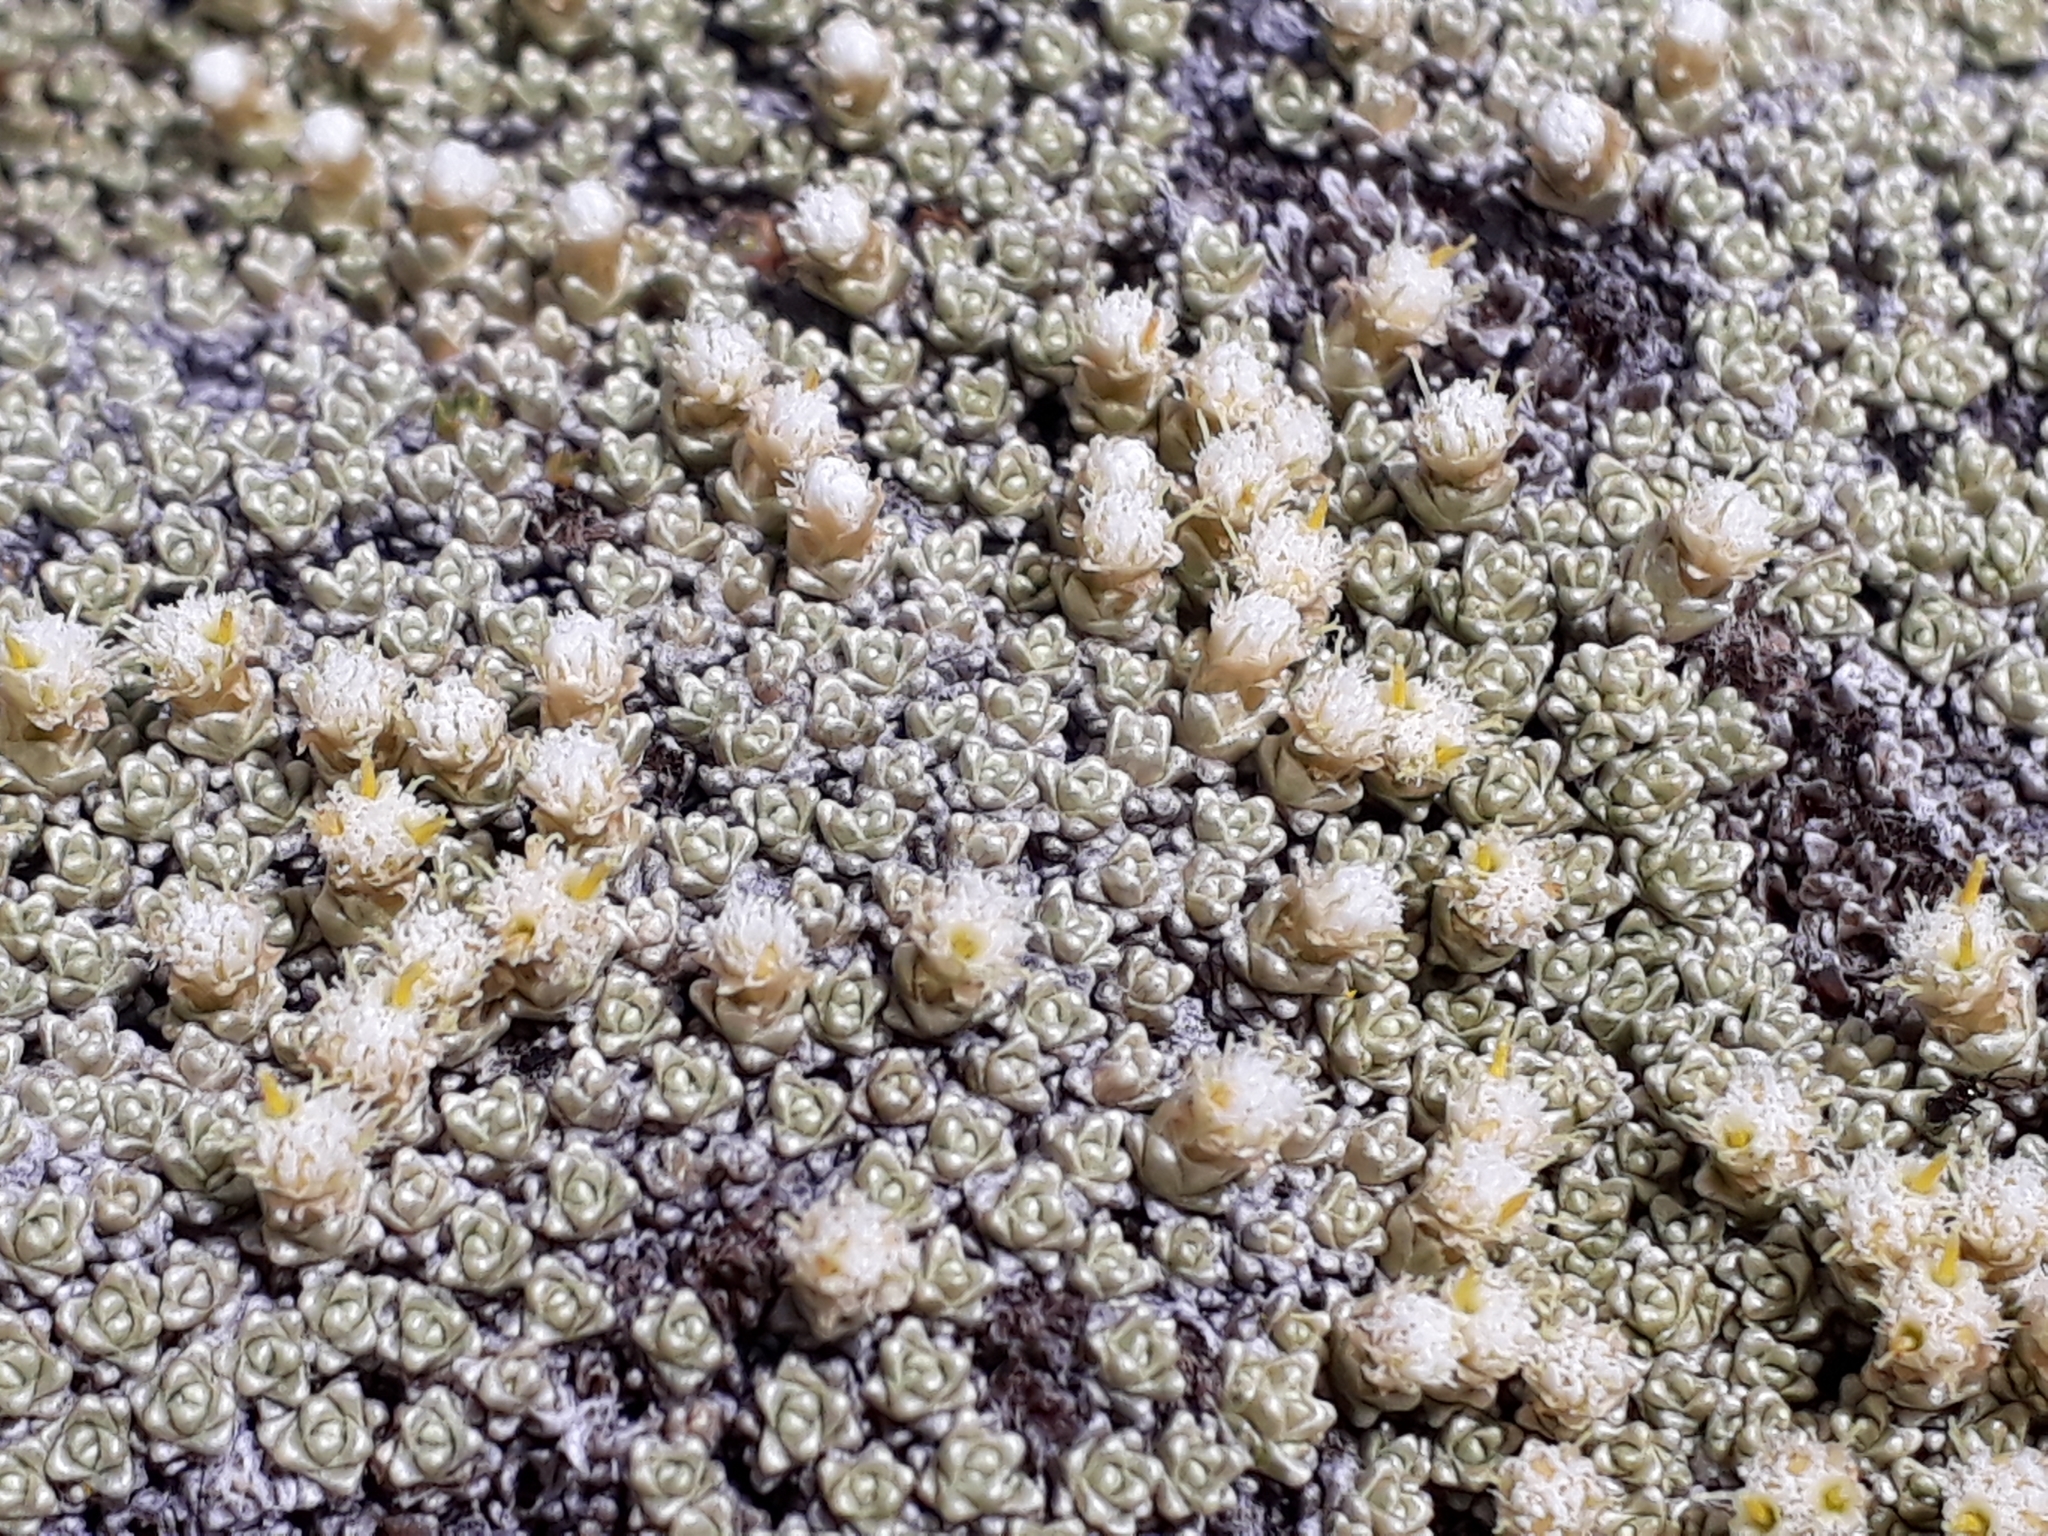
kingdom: Plantae
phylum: Tracheophyta
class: Magnoliopsida
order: Asterales
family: Asteraceae
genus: Raoulia
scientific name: Raoulia hectorii
